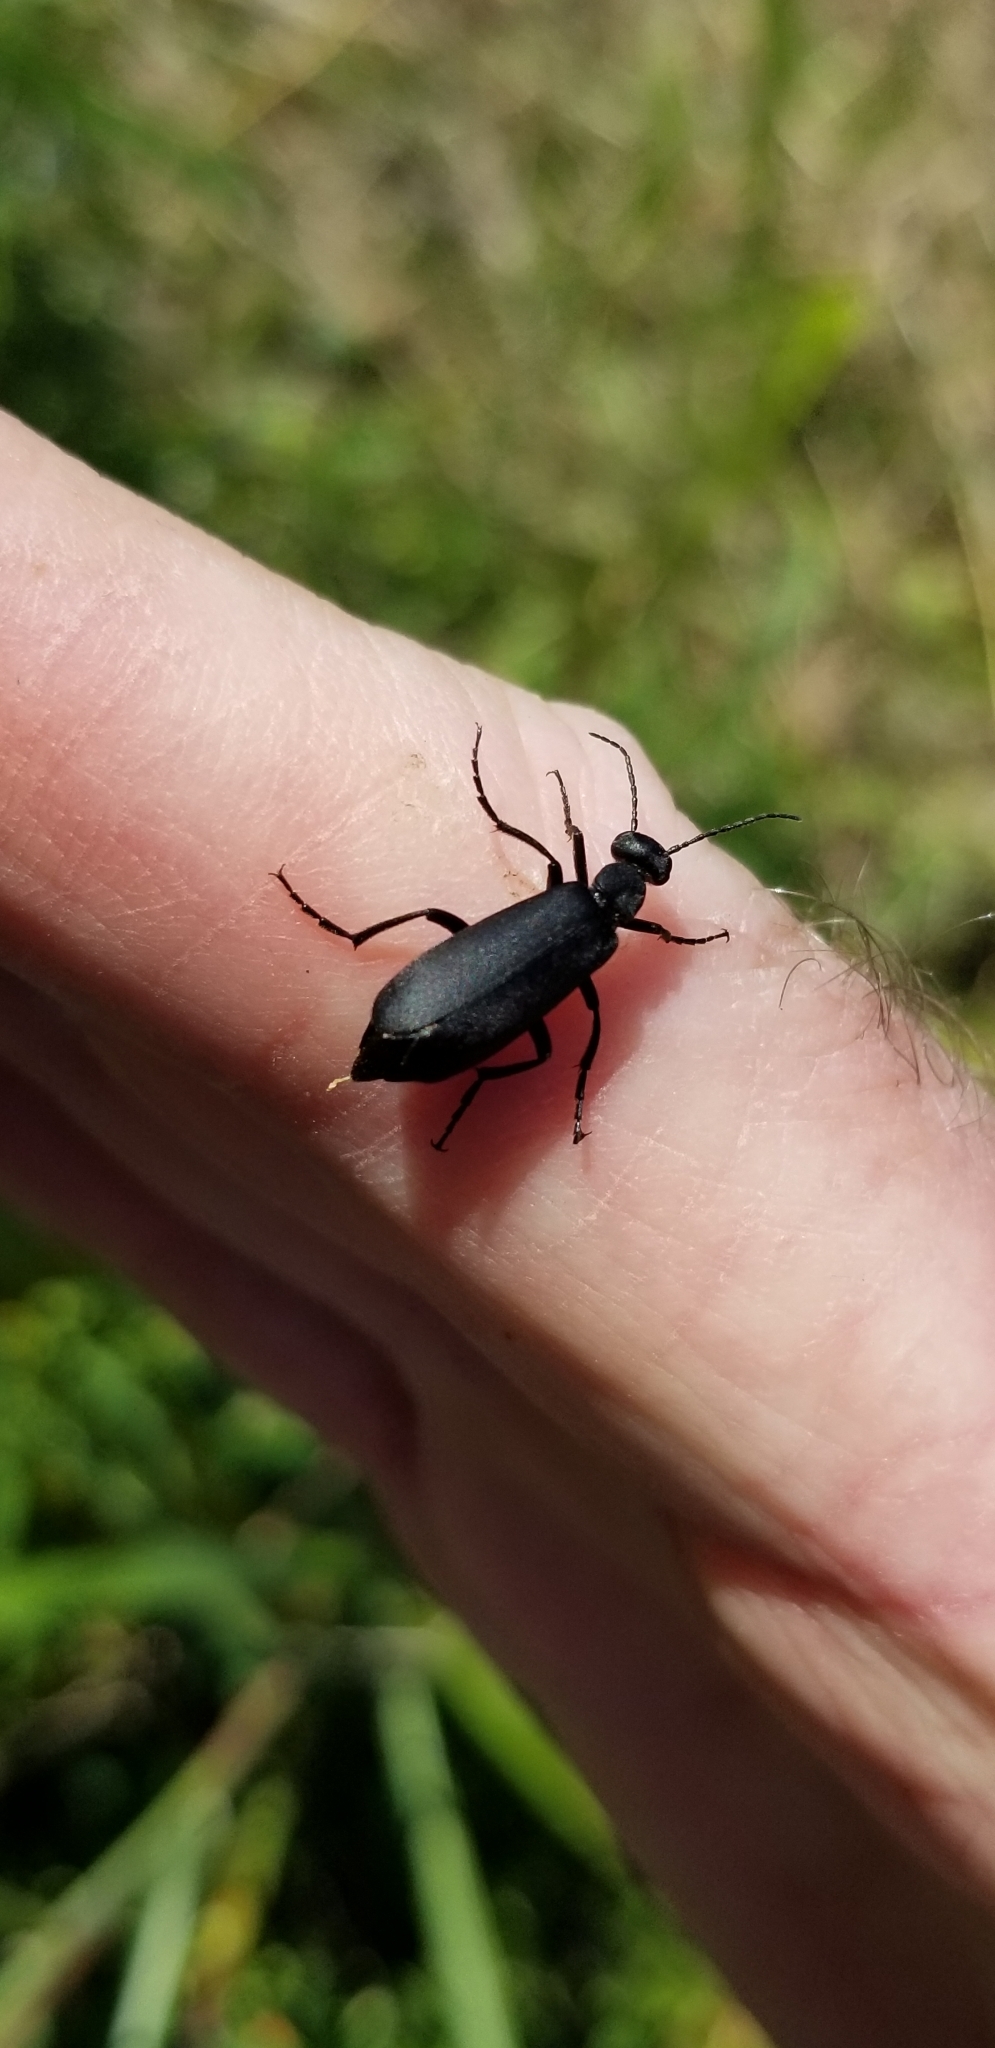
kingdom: Animalia
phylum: Arthropoda
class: Insecta
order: Coleoptera
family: Meloidae
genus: Epicauta
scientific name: Epicauta pensylvanica
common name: Black blister beetle
